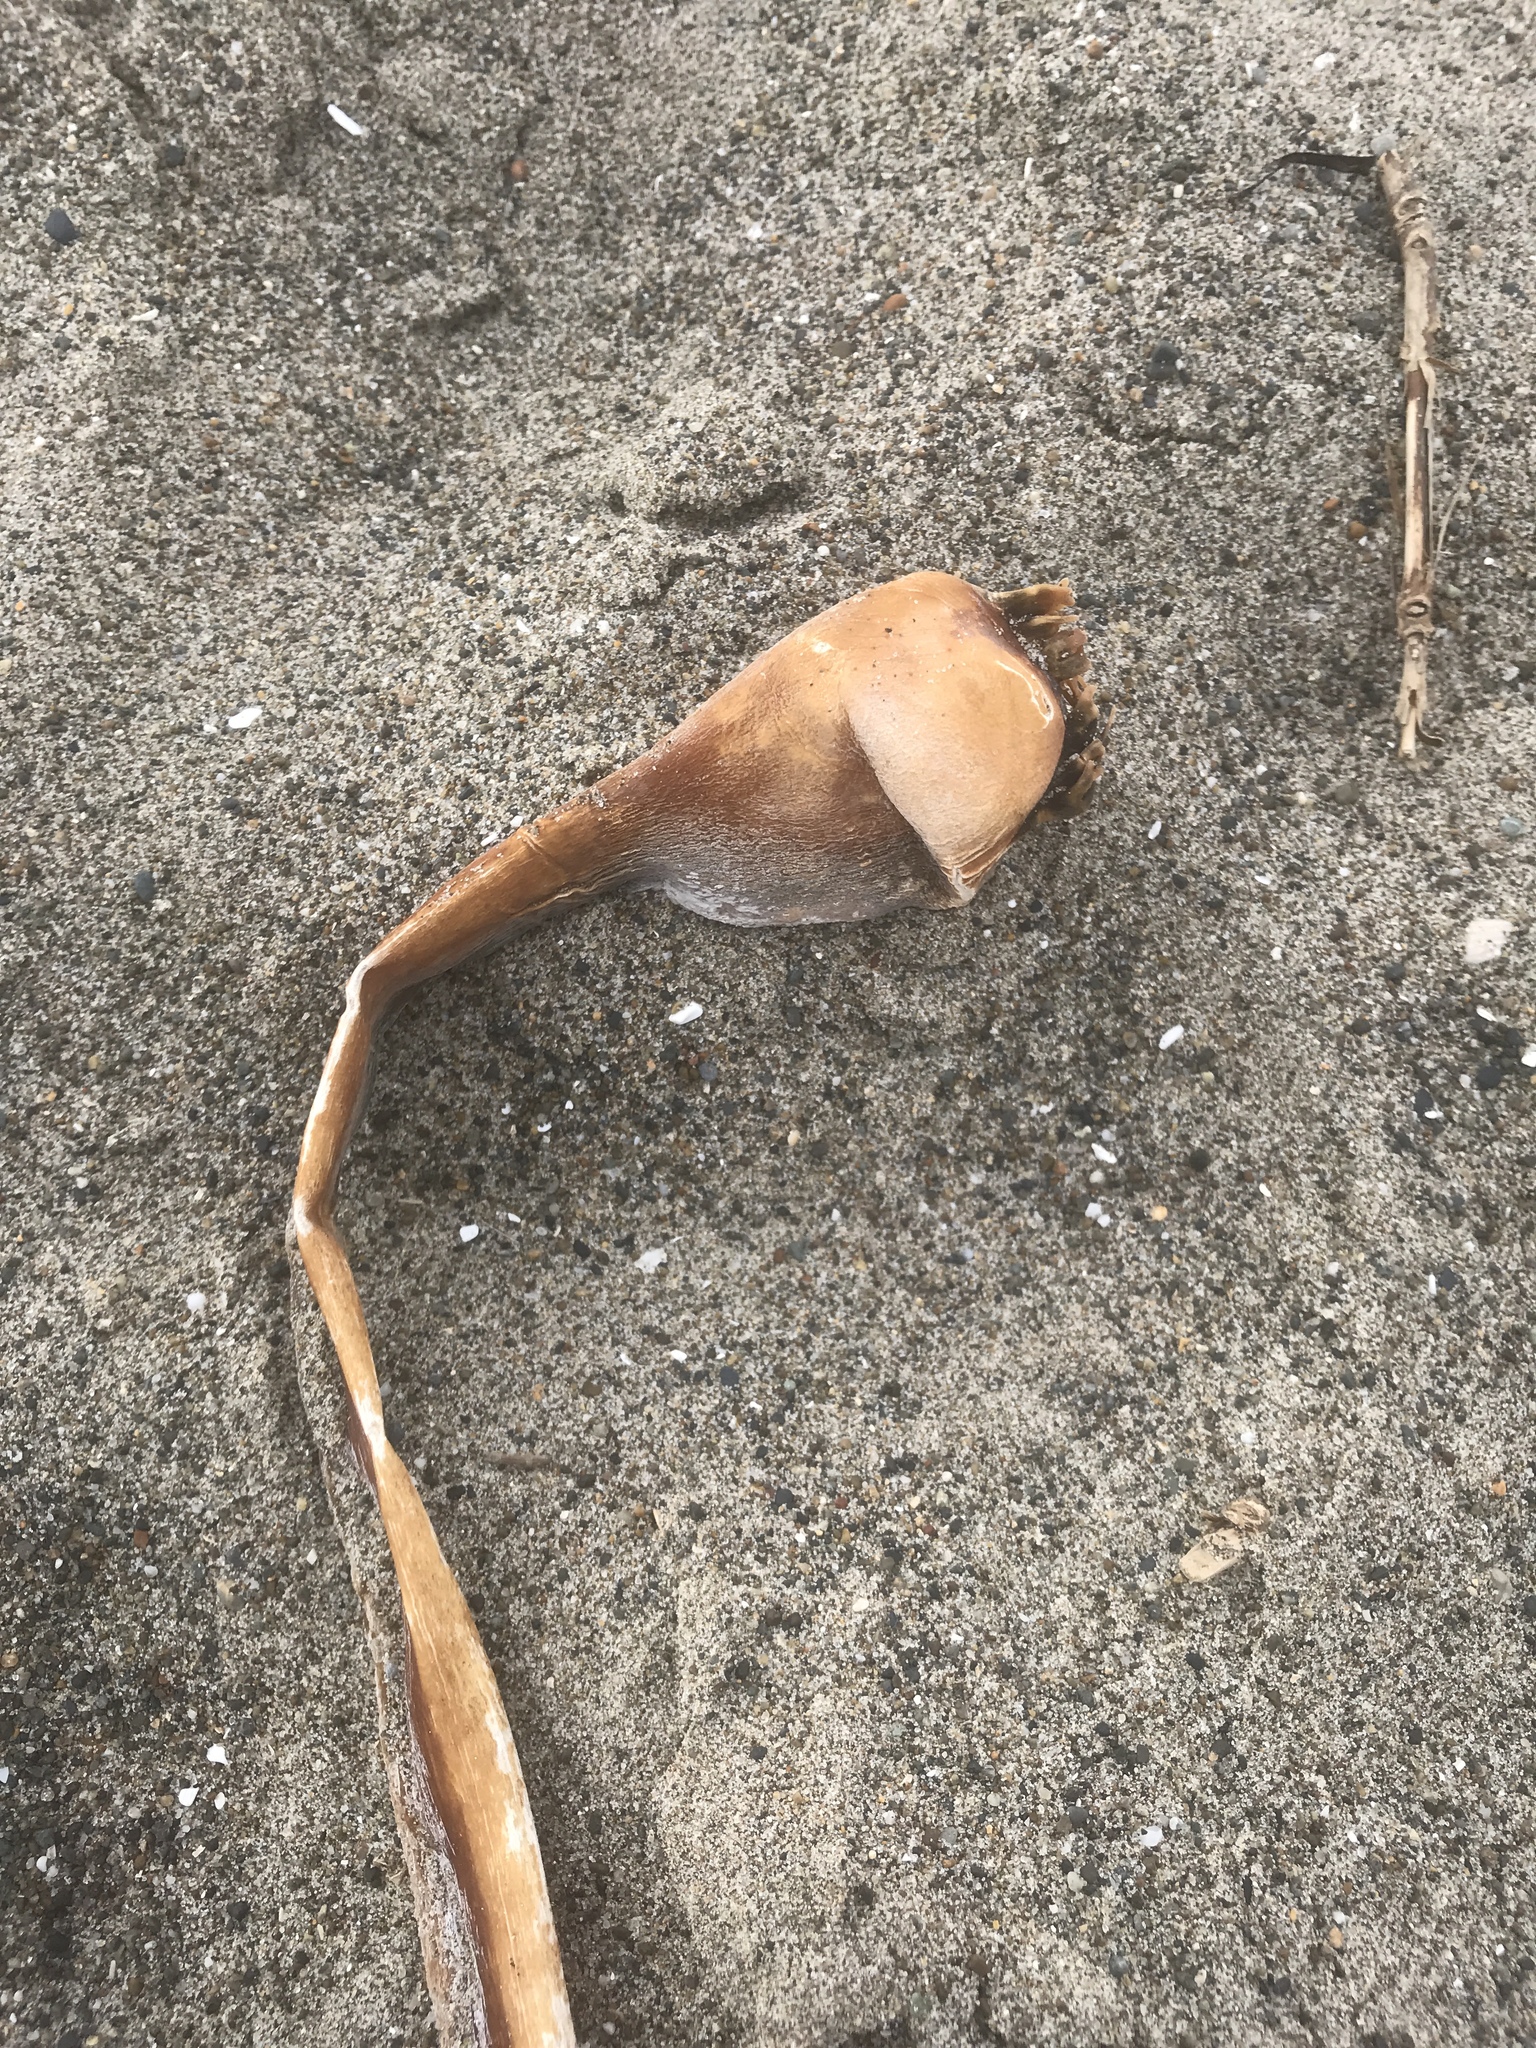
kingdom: Chromista
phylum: Ochrophyta
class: Phaeophyceae
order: Laminariales
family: Laminariaceae
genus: Nereocystis
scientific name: Nereocystis luetkeana
